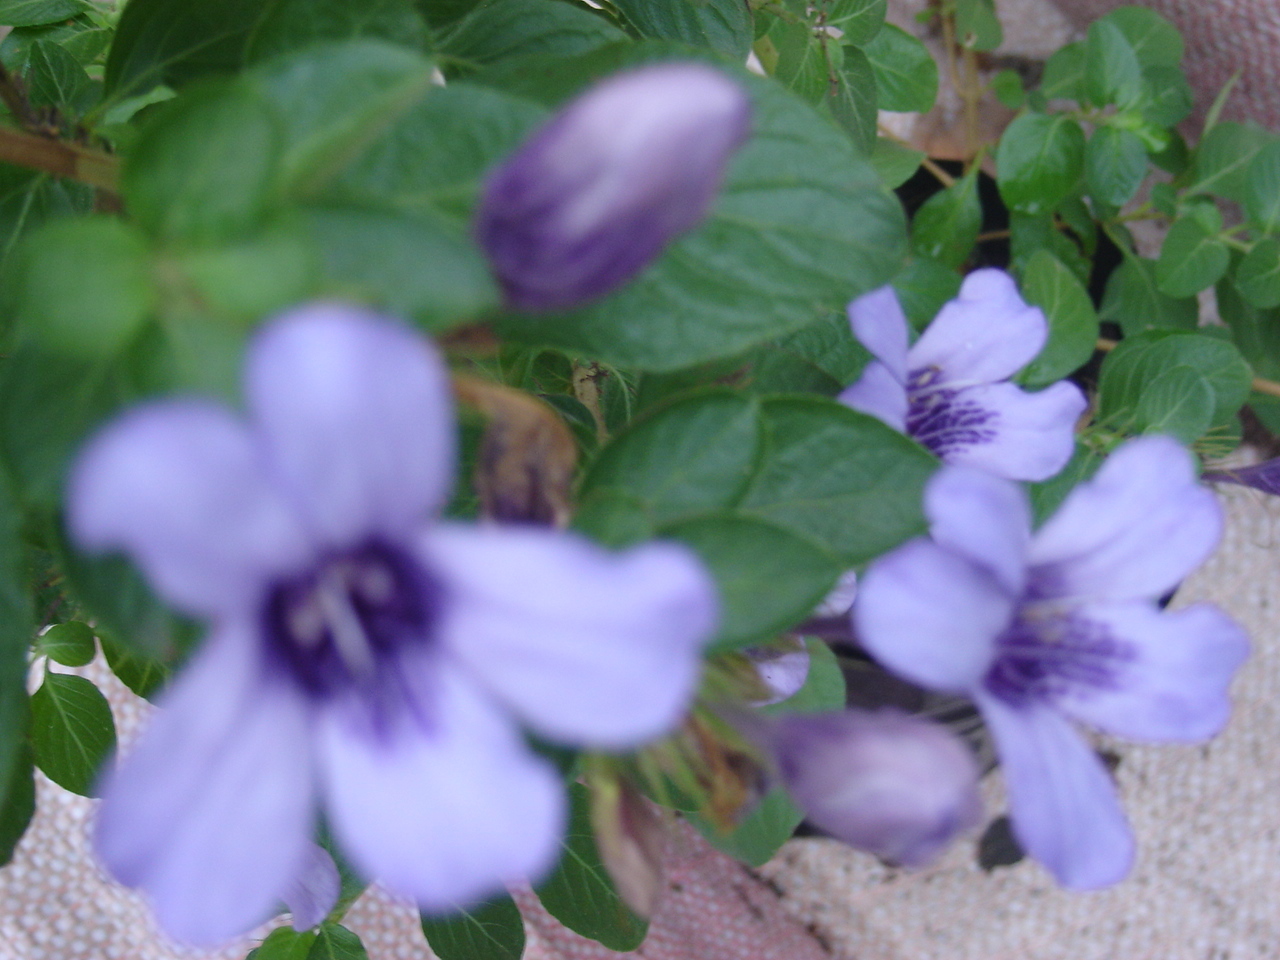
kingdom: Plantae
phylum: Tracheophyta
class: Magnoliopsida
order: Lamiales
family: Acanthaceae
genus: Dyschoriste
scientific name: Dyschoriste thunbergiiflora
